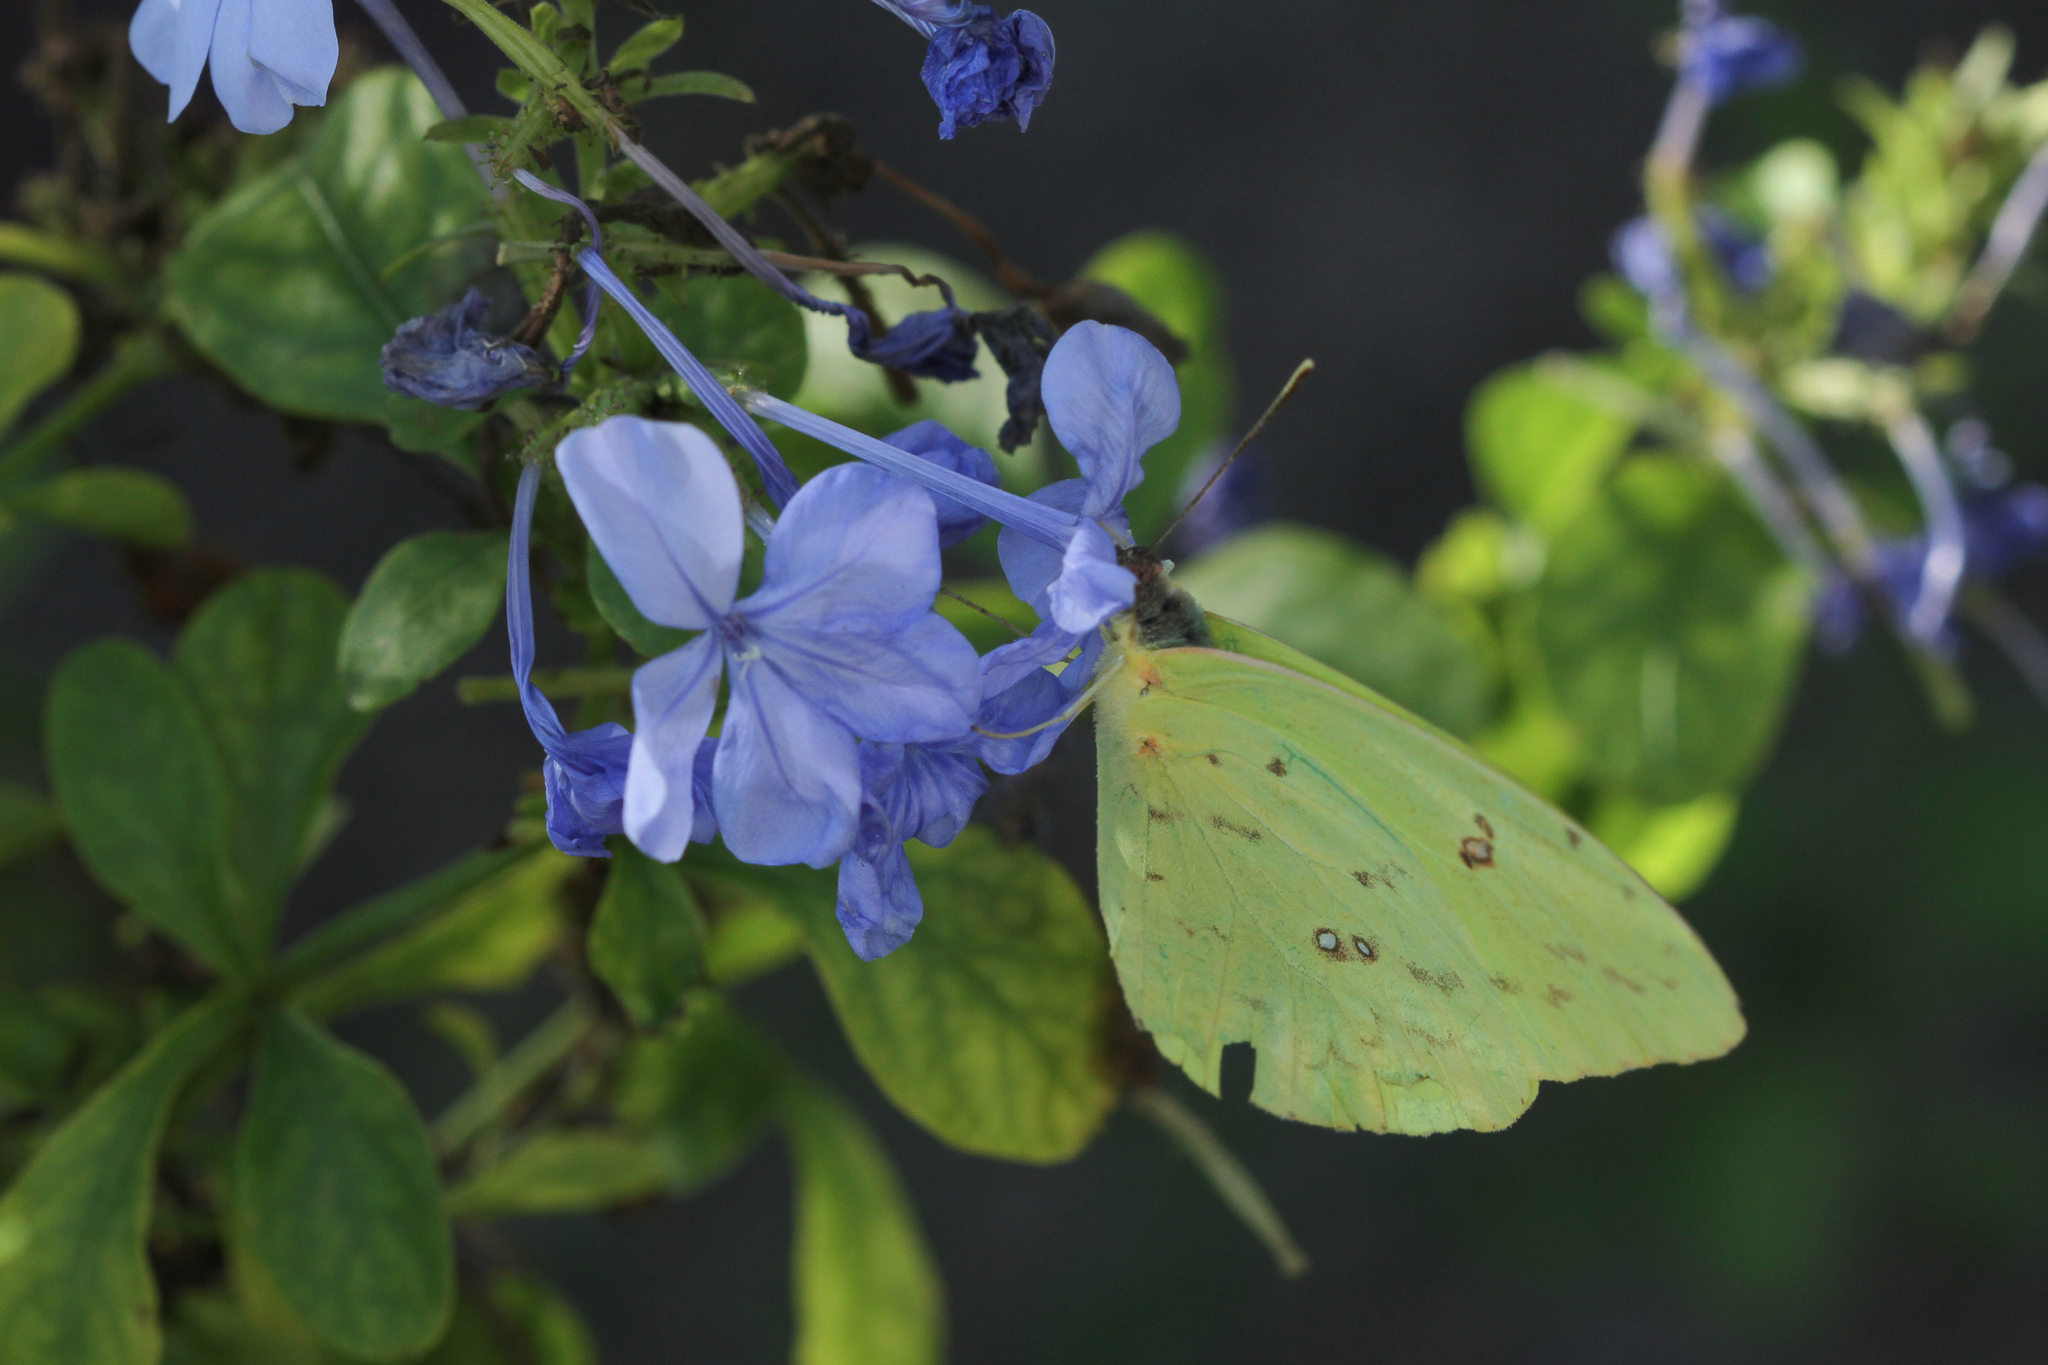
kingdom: Animalia
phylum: Arthropoda
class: Insecta
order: Lepidoptera
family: Pieridae
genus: Phoebis
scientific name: Phoebis sennae
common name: Cloudless sulphur
